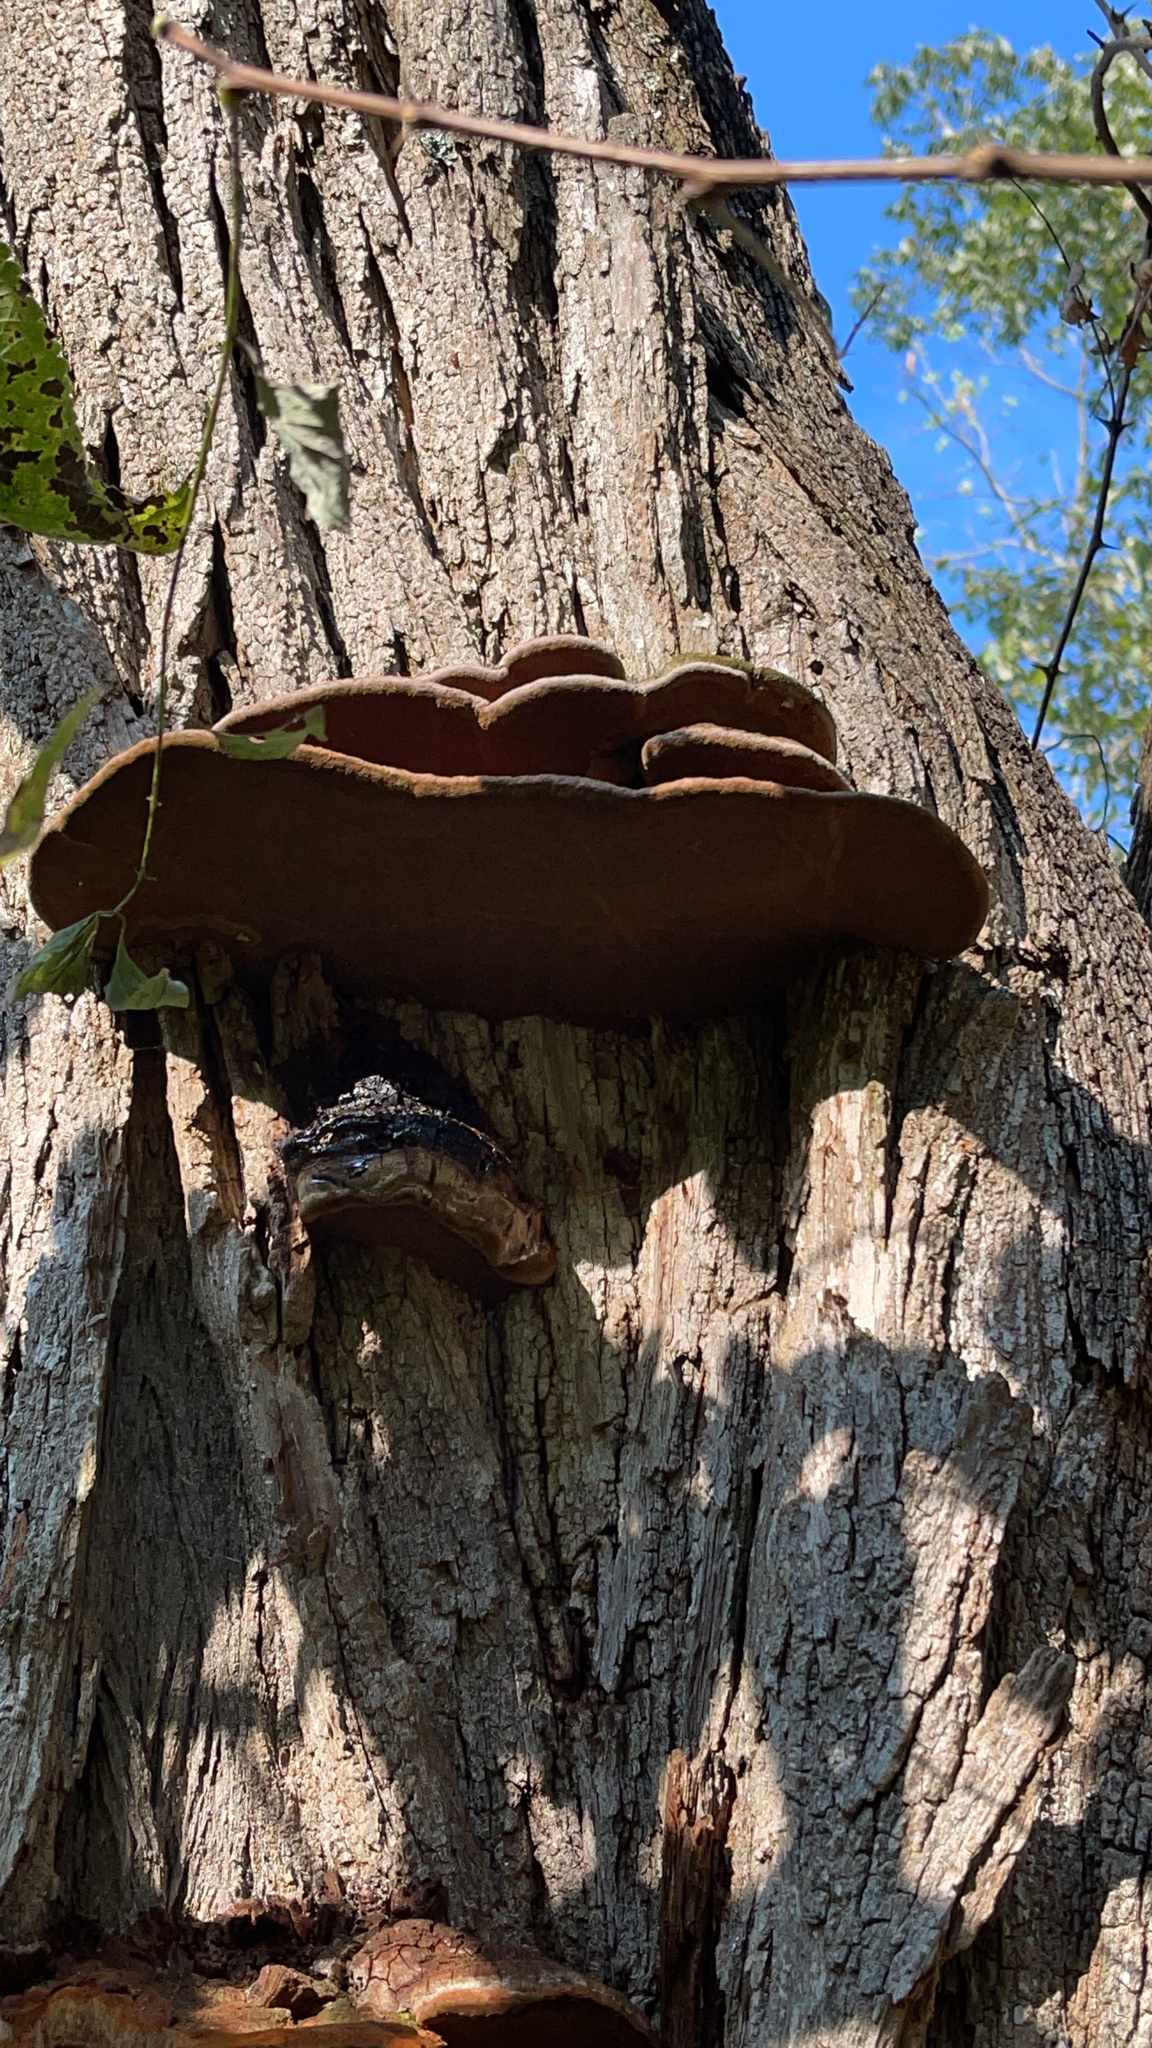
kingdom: Fungi
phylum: Basidiomycota
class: Agaricomycetes
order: Hymenochaetales
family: Hymenochaetaceae
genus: Phellinus
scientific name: Phellinus robiniae
